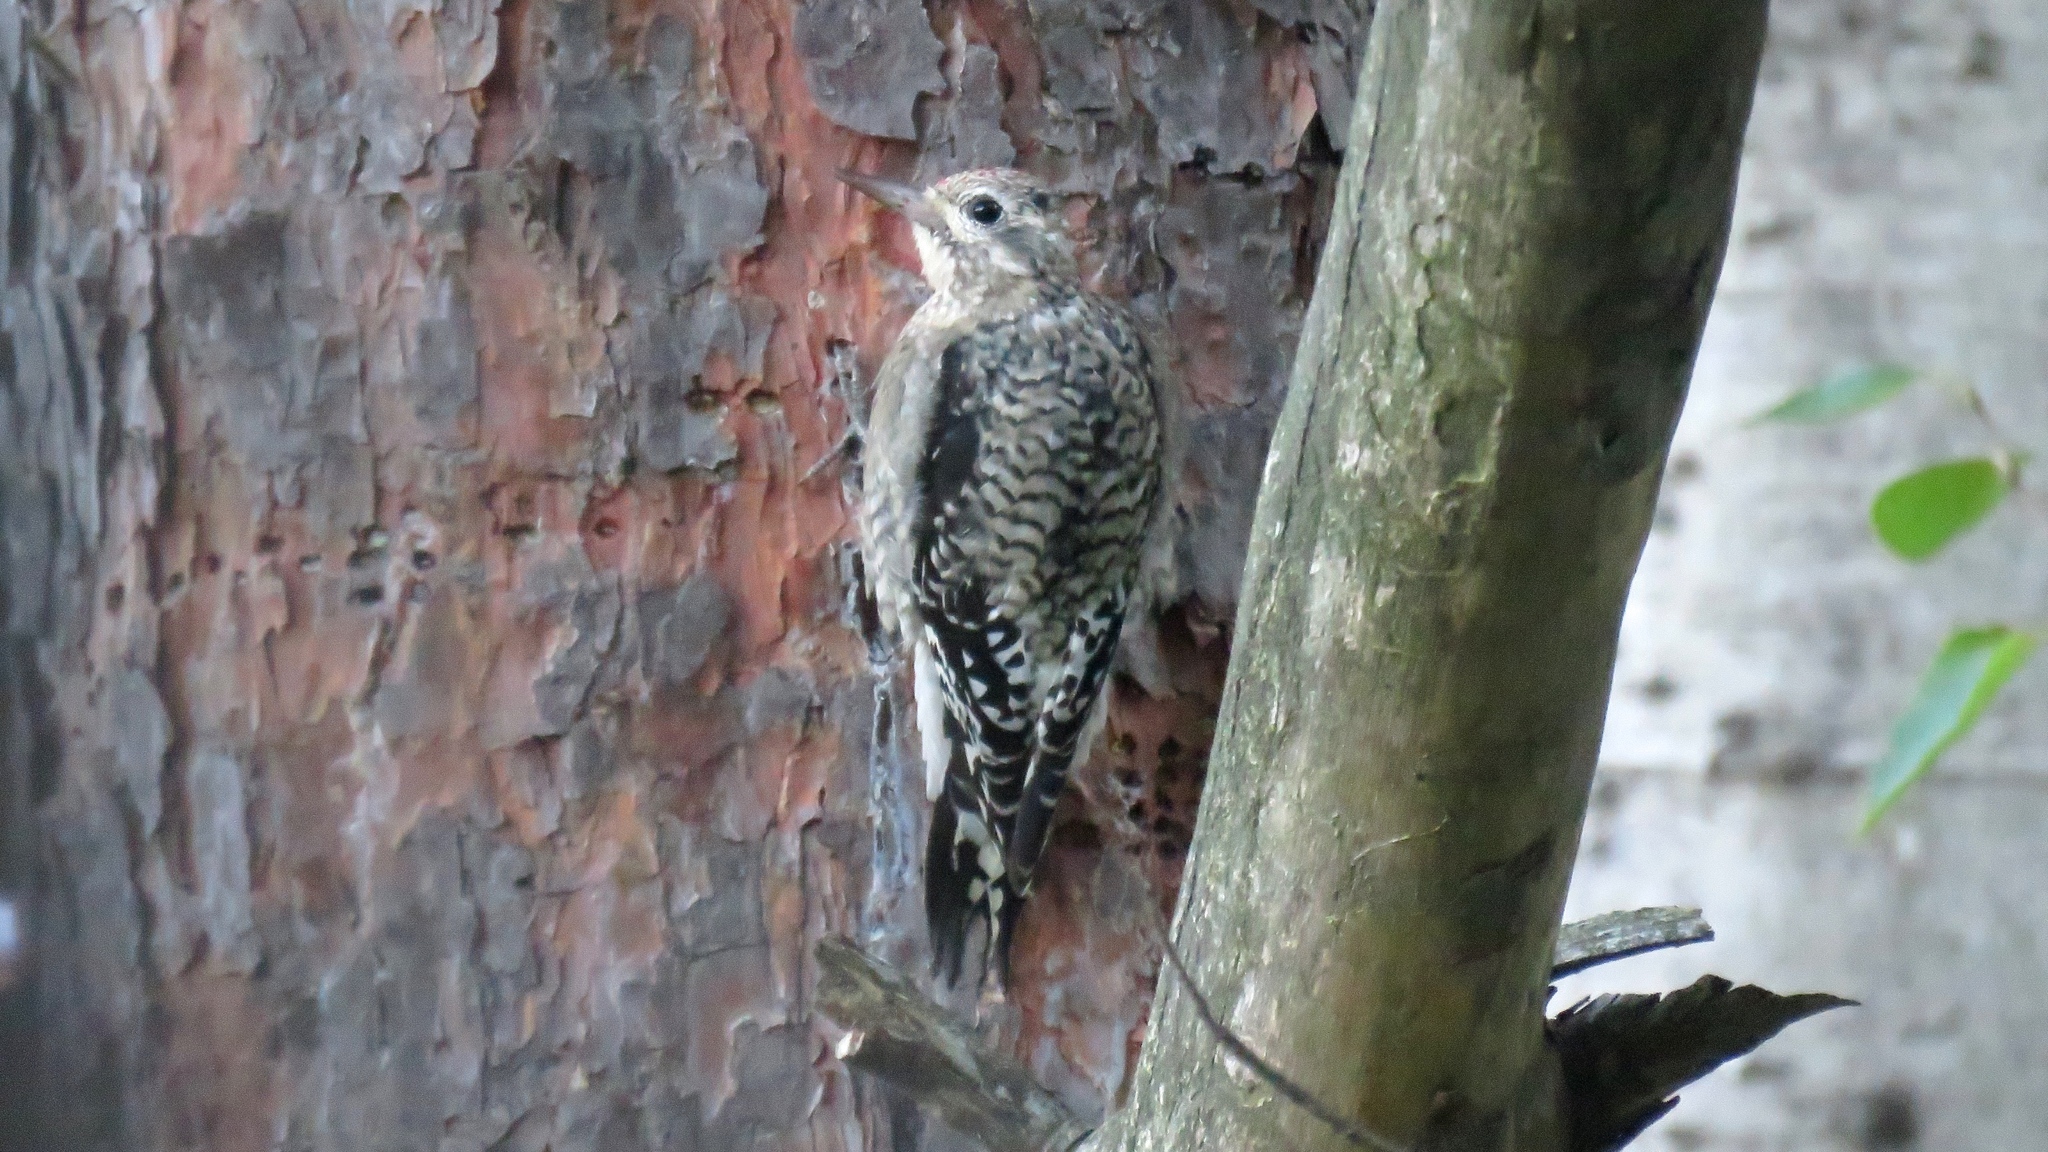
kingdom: Animalia
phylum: Chordata
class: Aves
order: Piciformes
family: Picidae
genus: Sphyrapicus
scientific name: Sphyrapicus varius
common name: Yellow-bellied sapsucker
